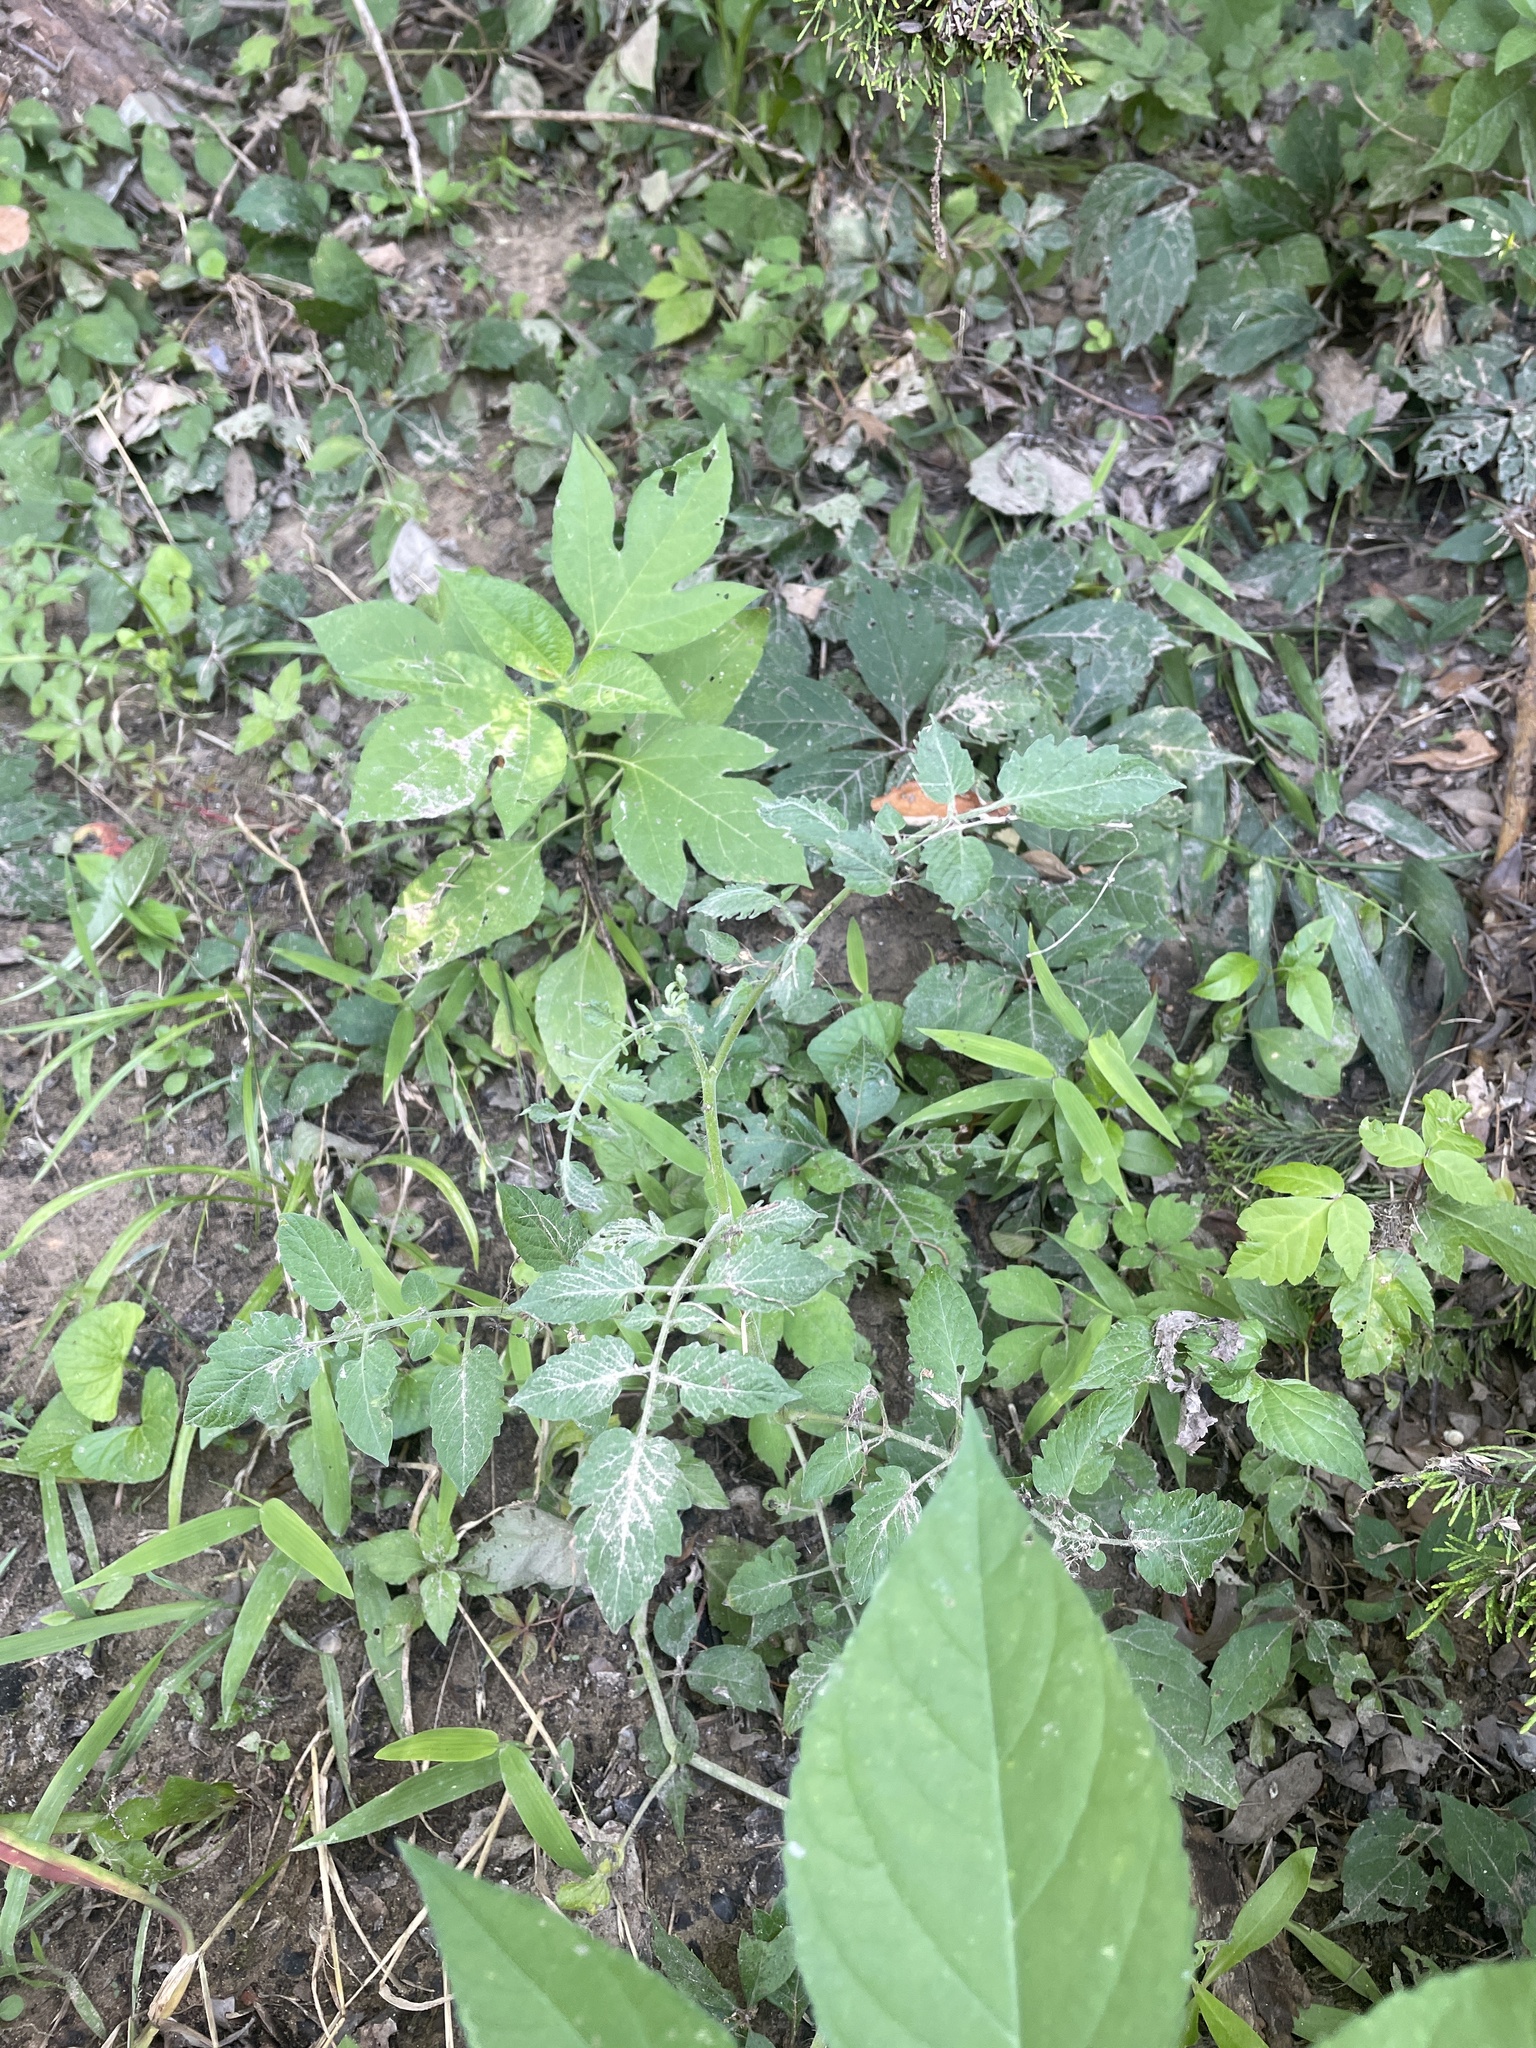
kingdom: Plantae
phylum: Tracheophyta
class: Magnoliopsida
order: Solanales
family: Solanaceae
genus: Solanum
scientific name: Solanum lycopersicum
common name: Garden tomato
